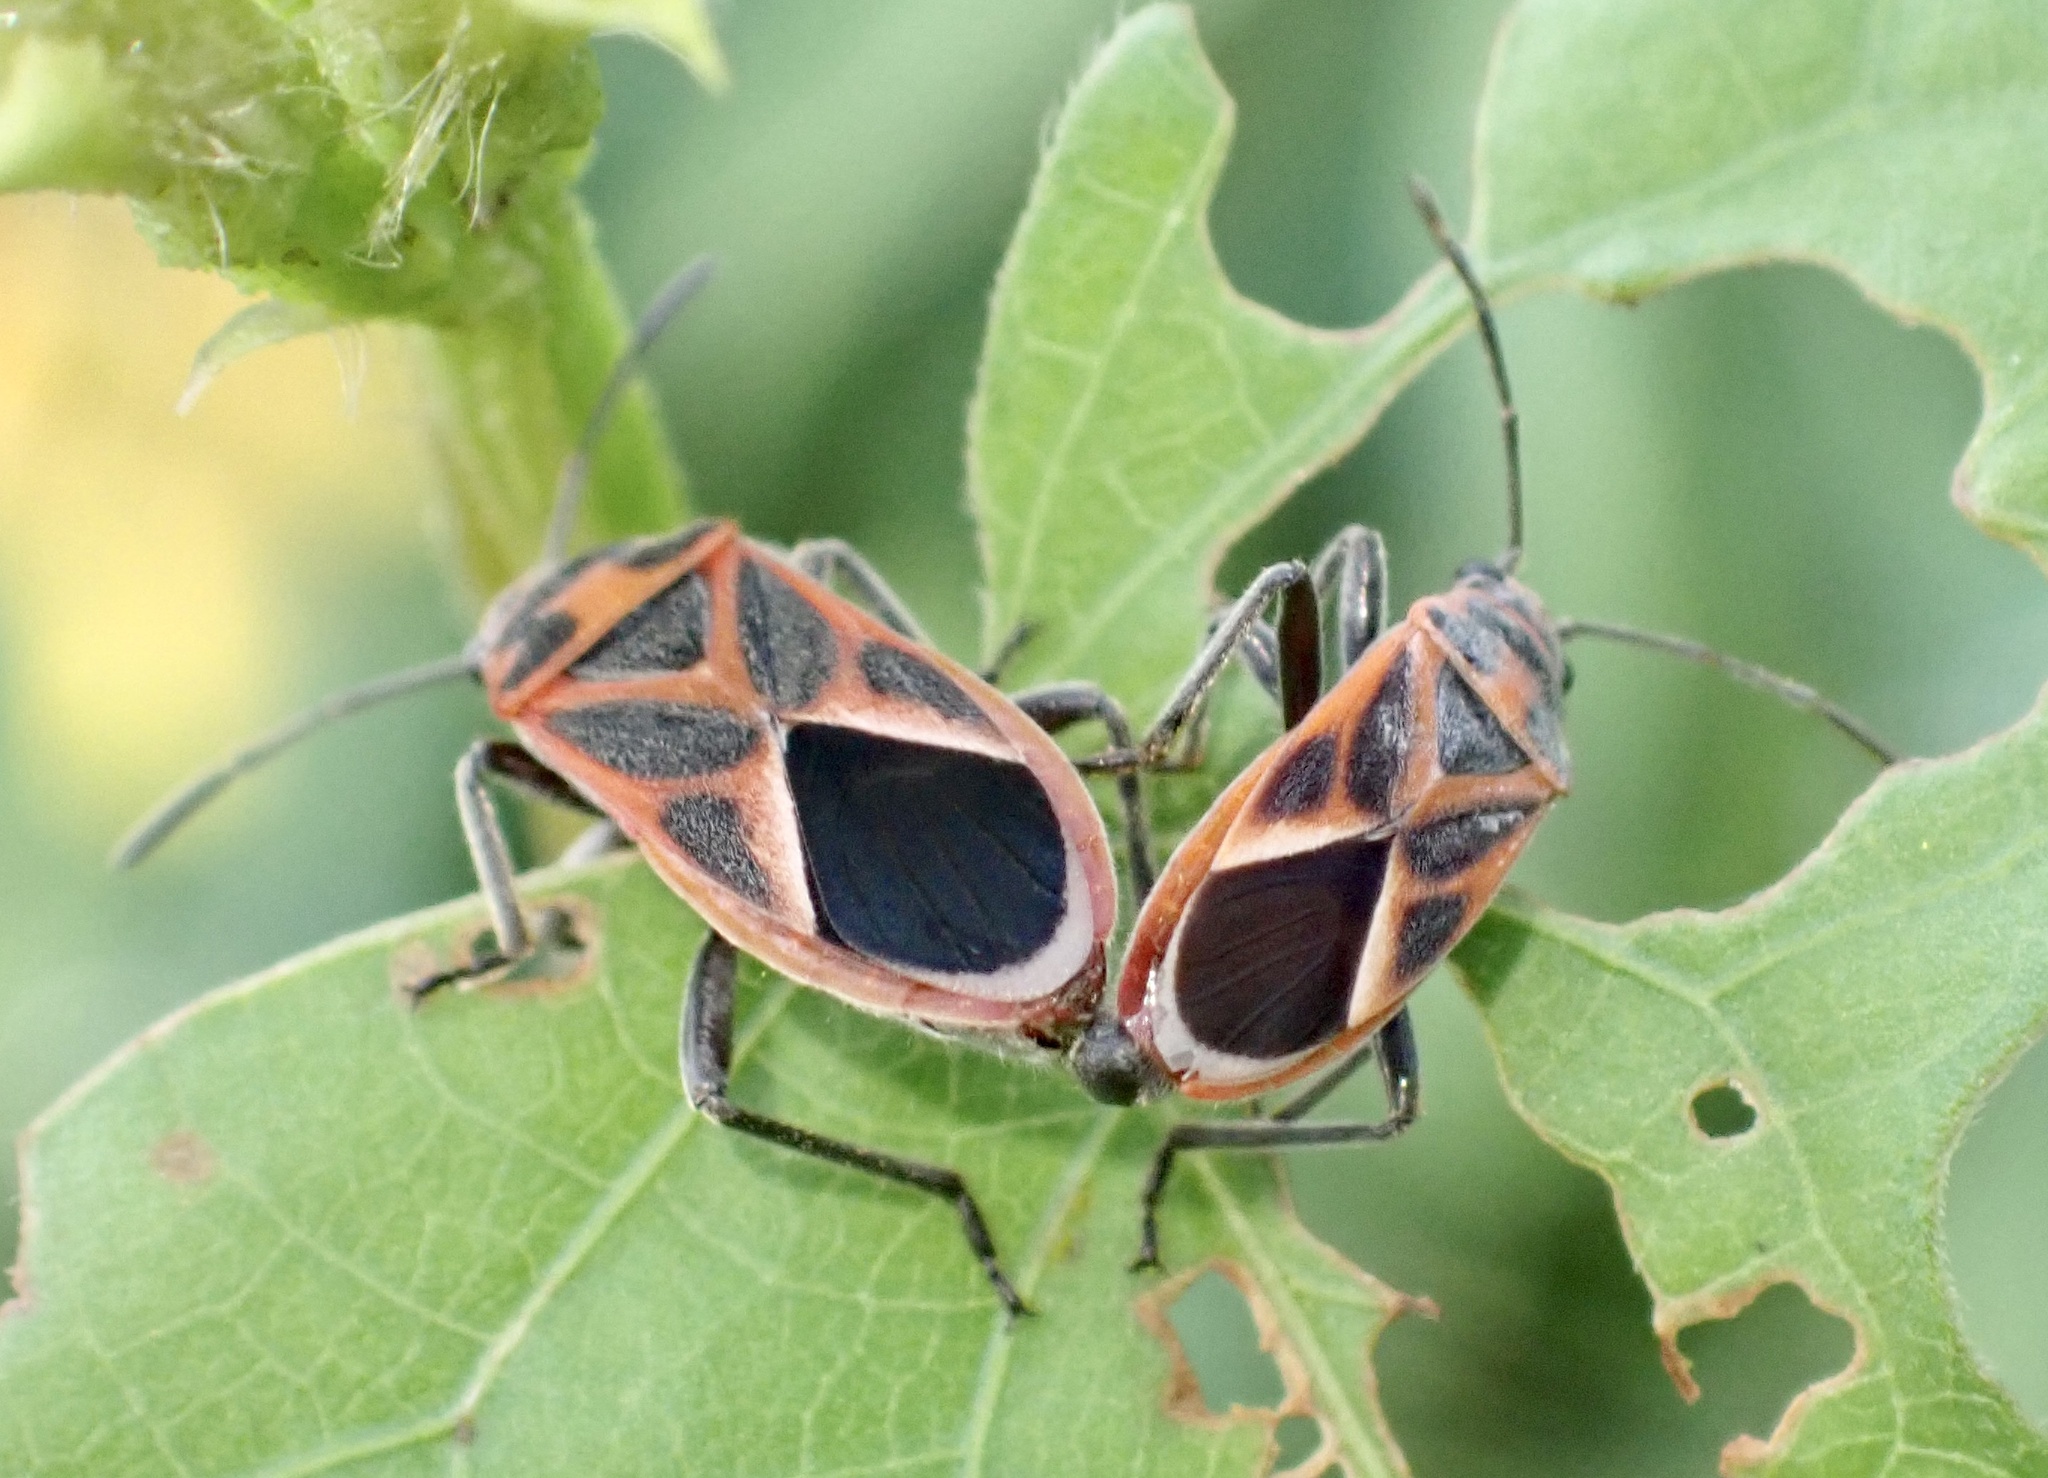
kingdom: Animalia
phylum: Arthropoda
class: Insecta
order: Hemiptera
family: Lygaeidae
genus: Graptostethus
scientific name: Graptostethus servus
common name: Lygaeid bug
